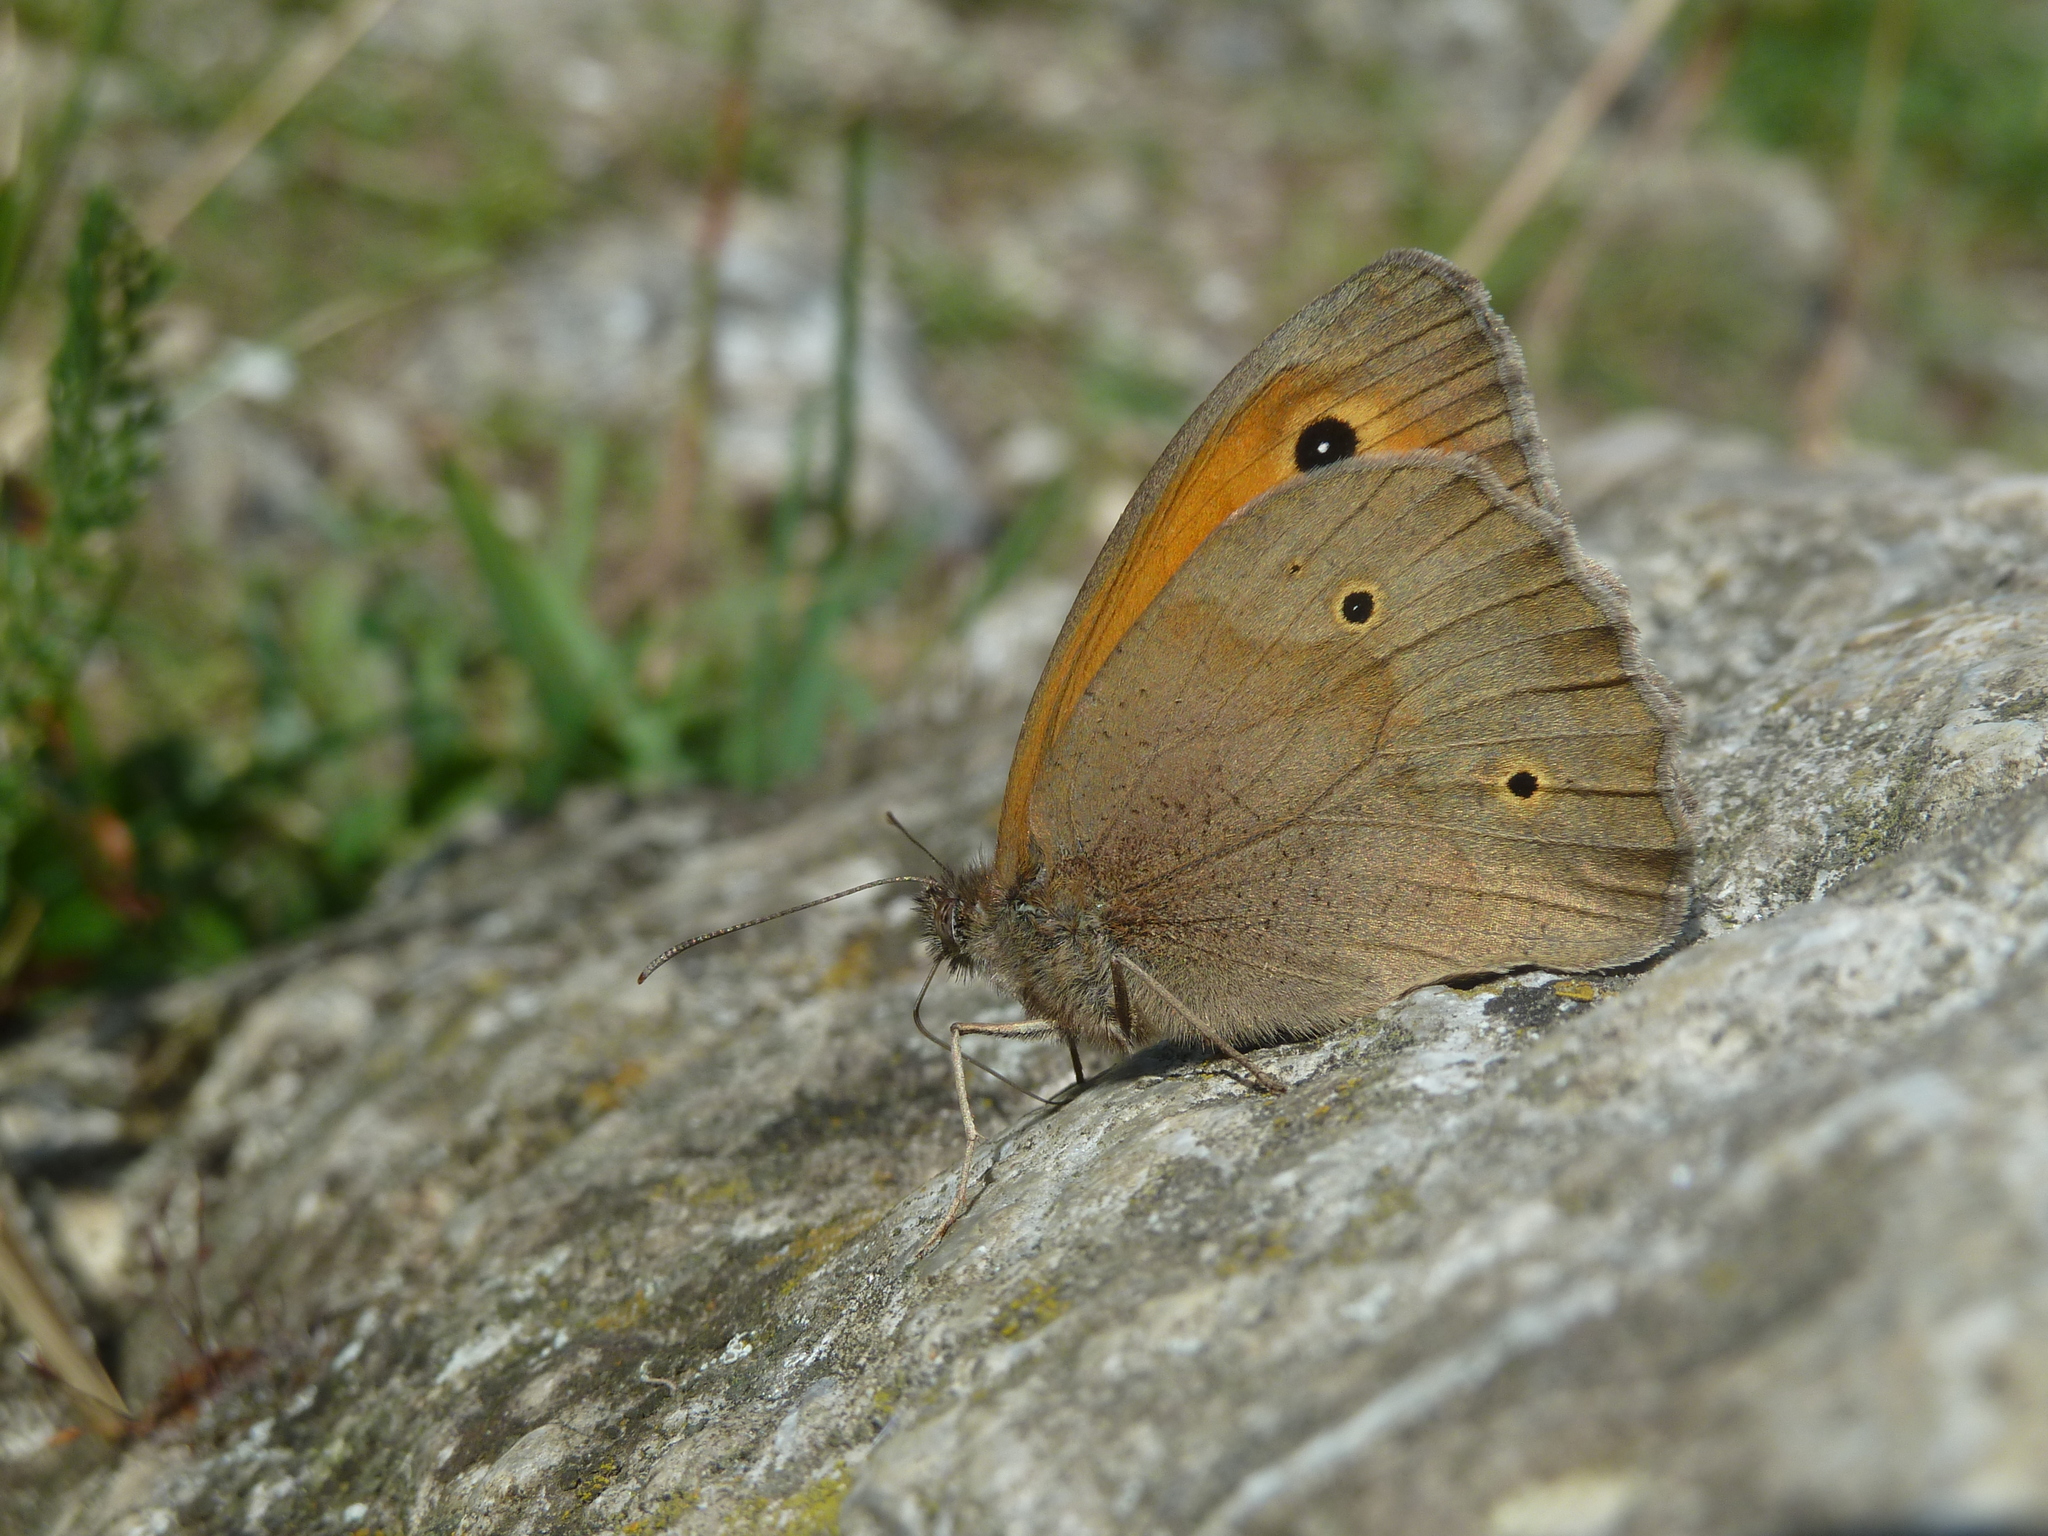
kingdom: Animalia
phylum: Arthropoda
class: Insecta
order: Lepidoptera
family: Nymphalidae
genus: Maniola
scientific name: Maniola jurtina
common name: Meadow brown
